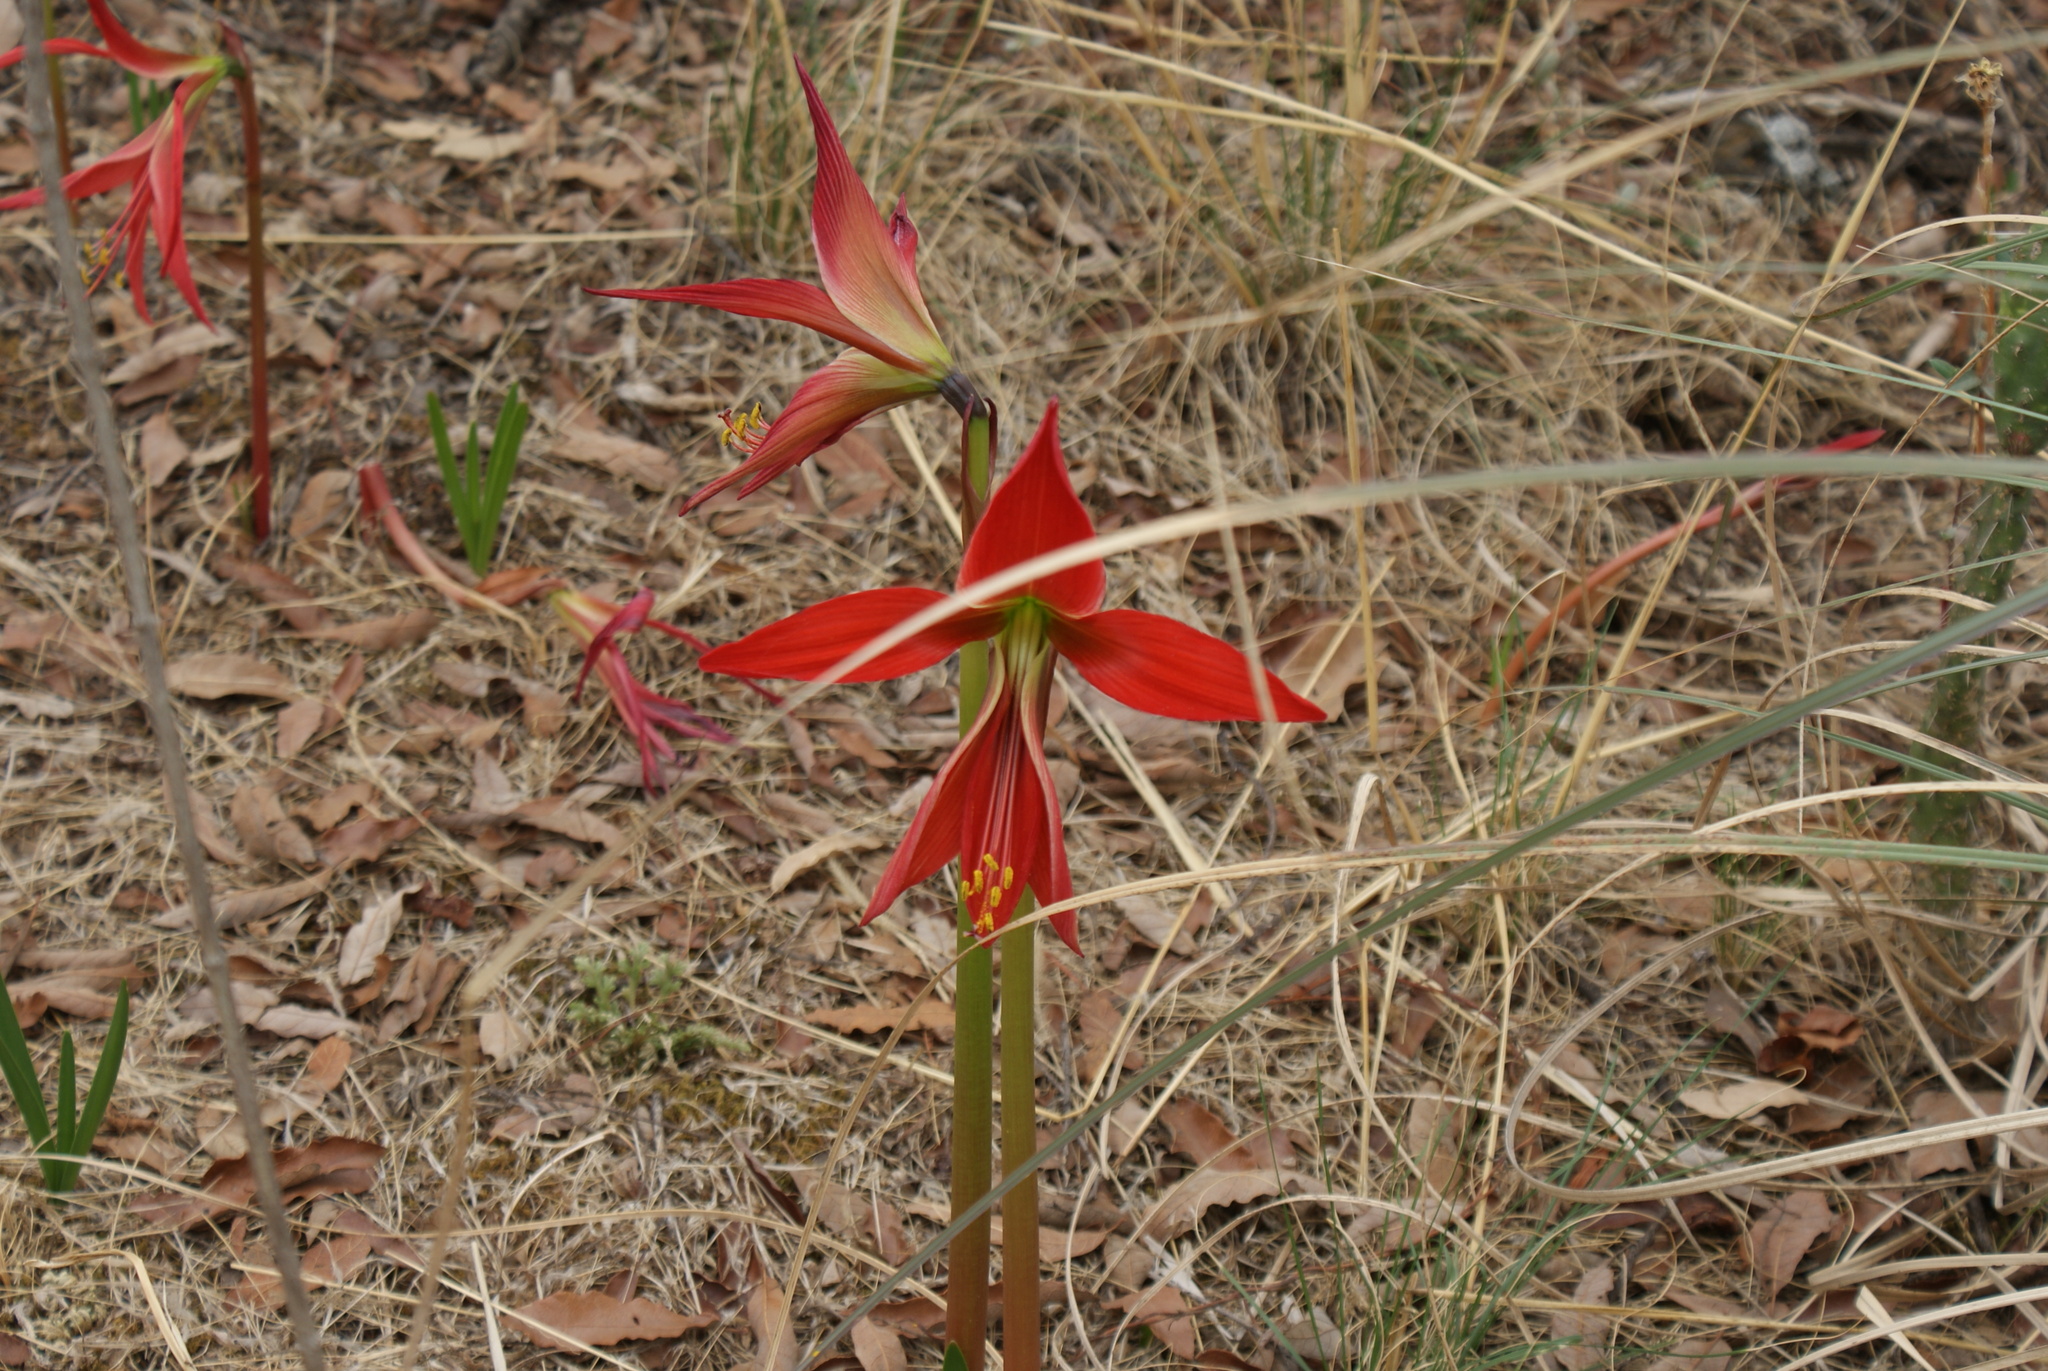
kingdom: Plantae
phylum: Tracheophyta
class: Liliopsida
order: Asparagales
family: Amaryllidaceae
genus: Sprekelia
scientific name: Sprekelia formosissima
